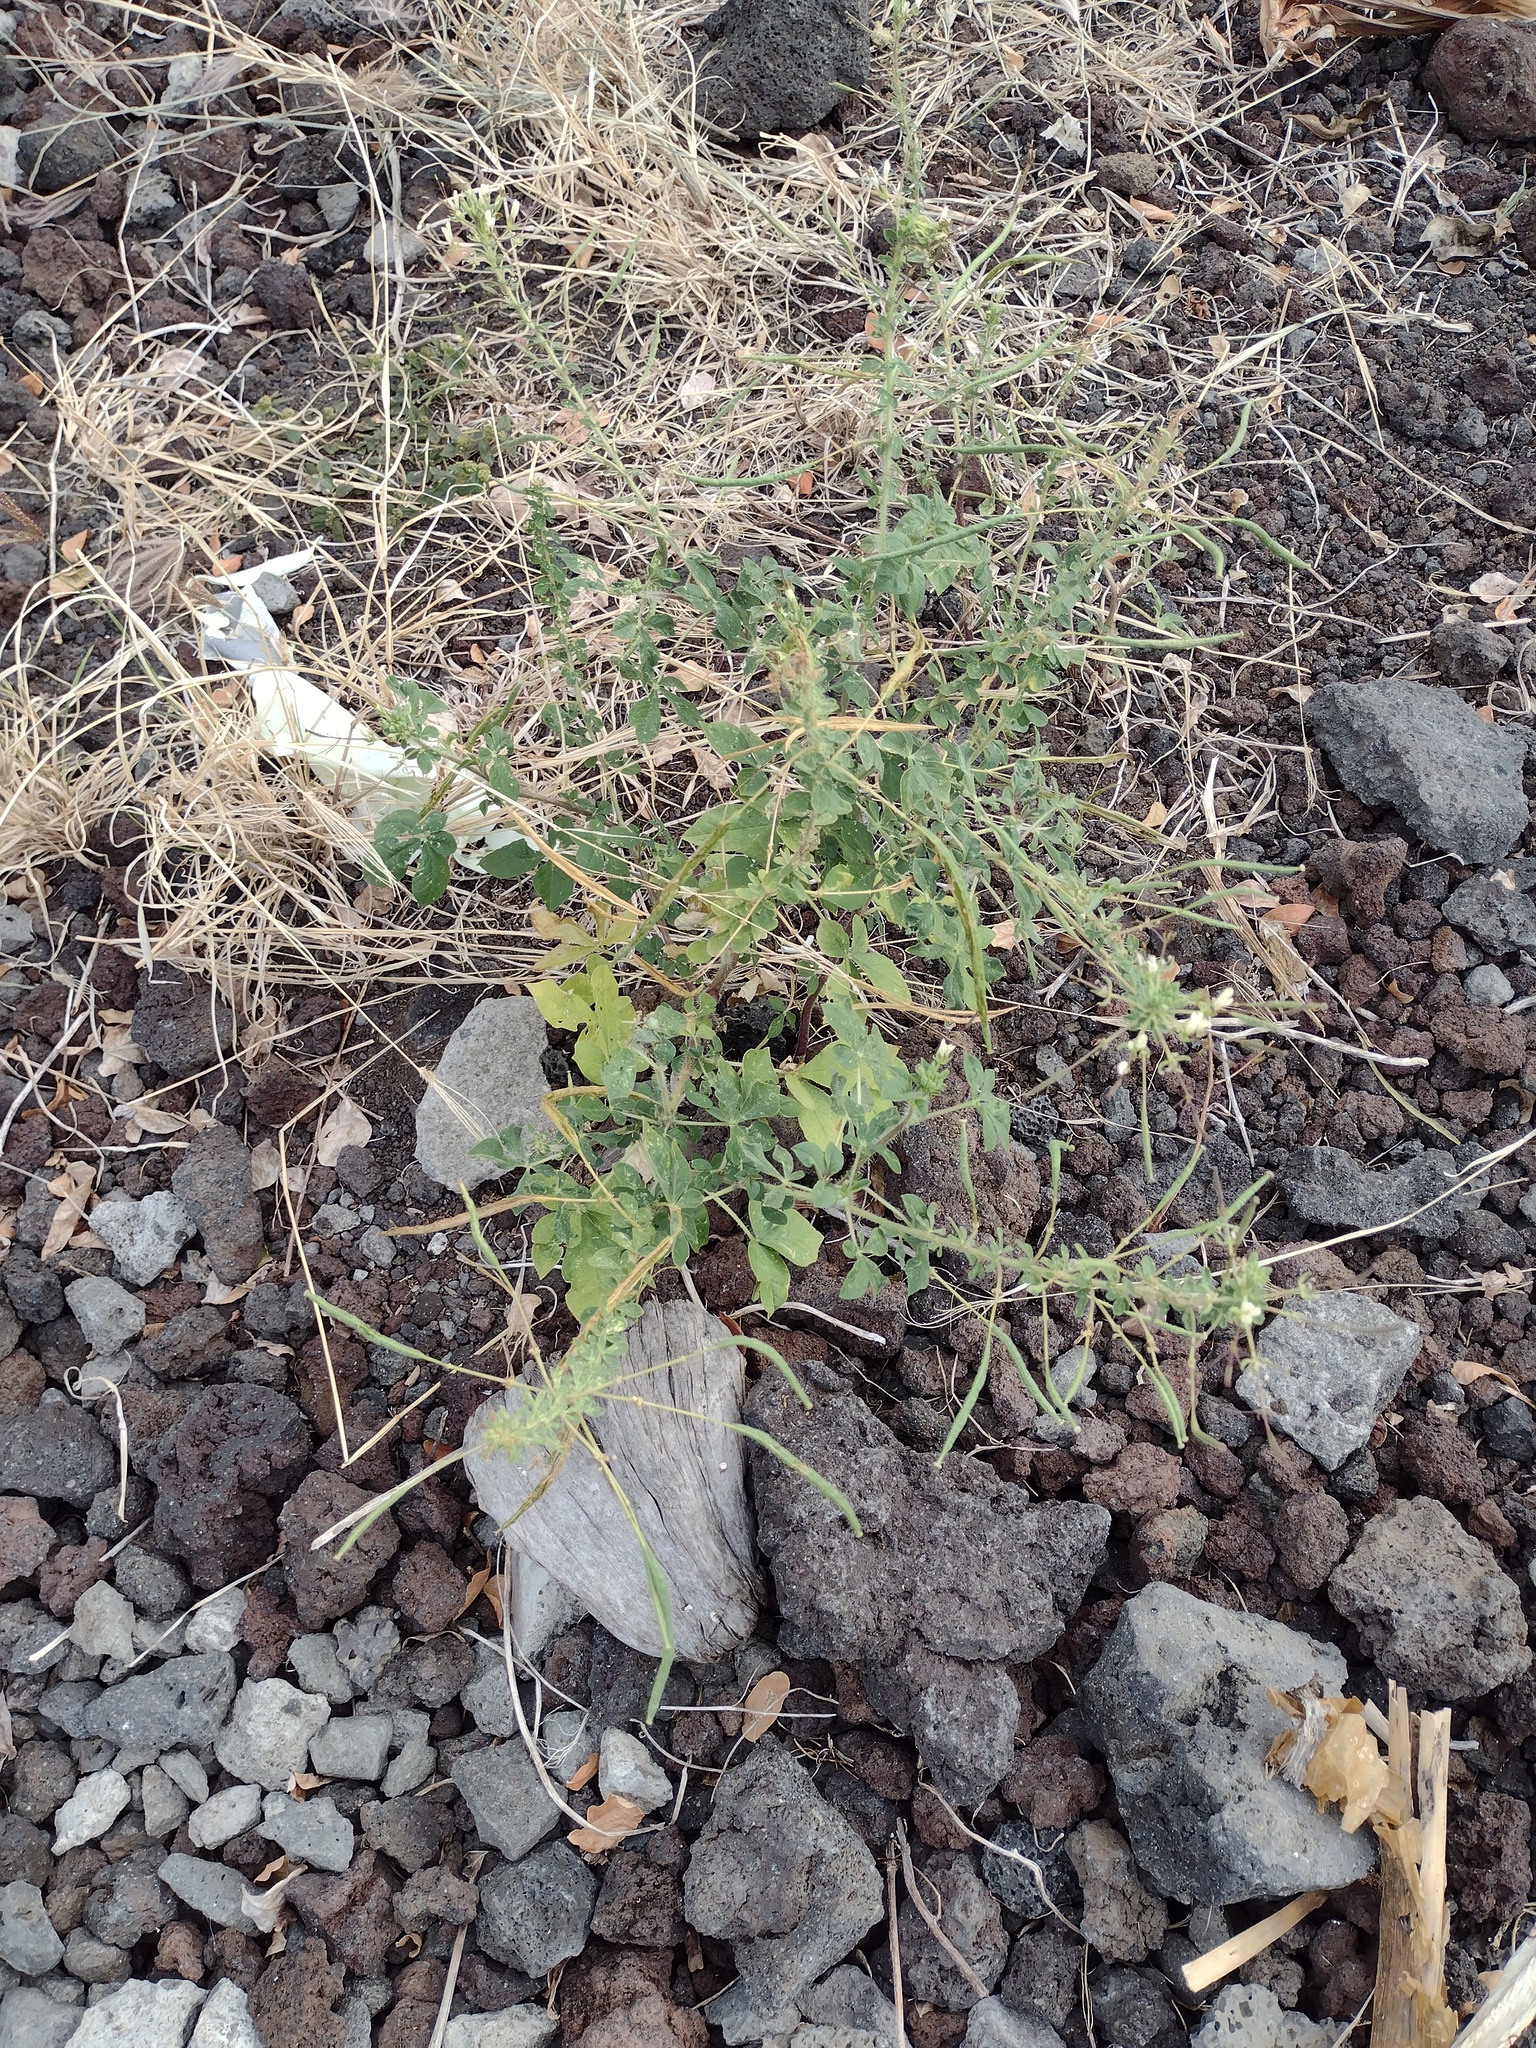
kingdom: Plantae
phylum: Tracheophyta
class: Magnoliopsida
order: Brassicales
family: Cleomaceae
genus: Gynandropsis
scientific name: Gynandropsis gynandra
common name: Spiderwisp
